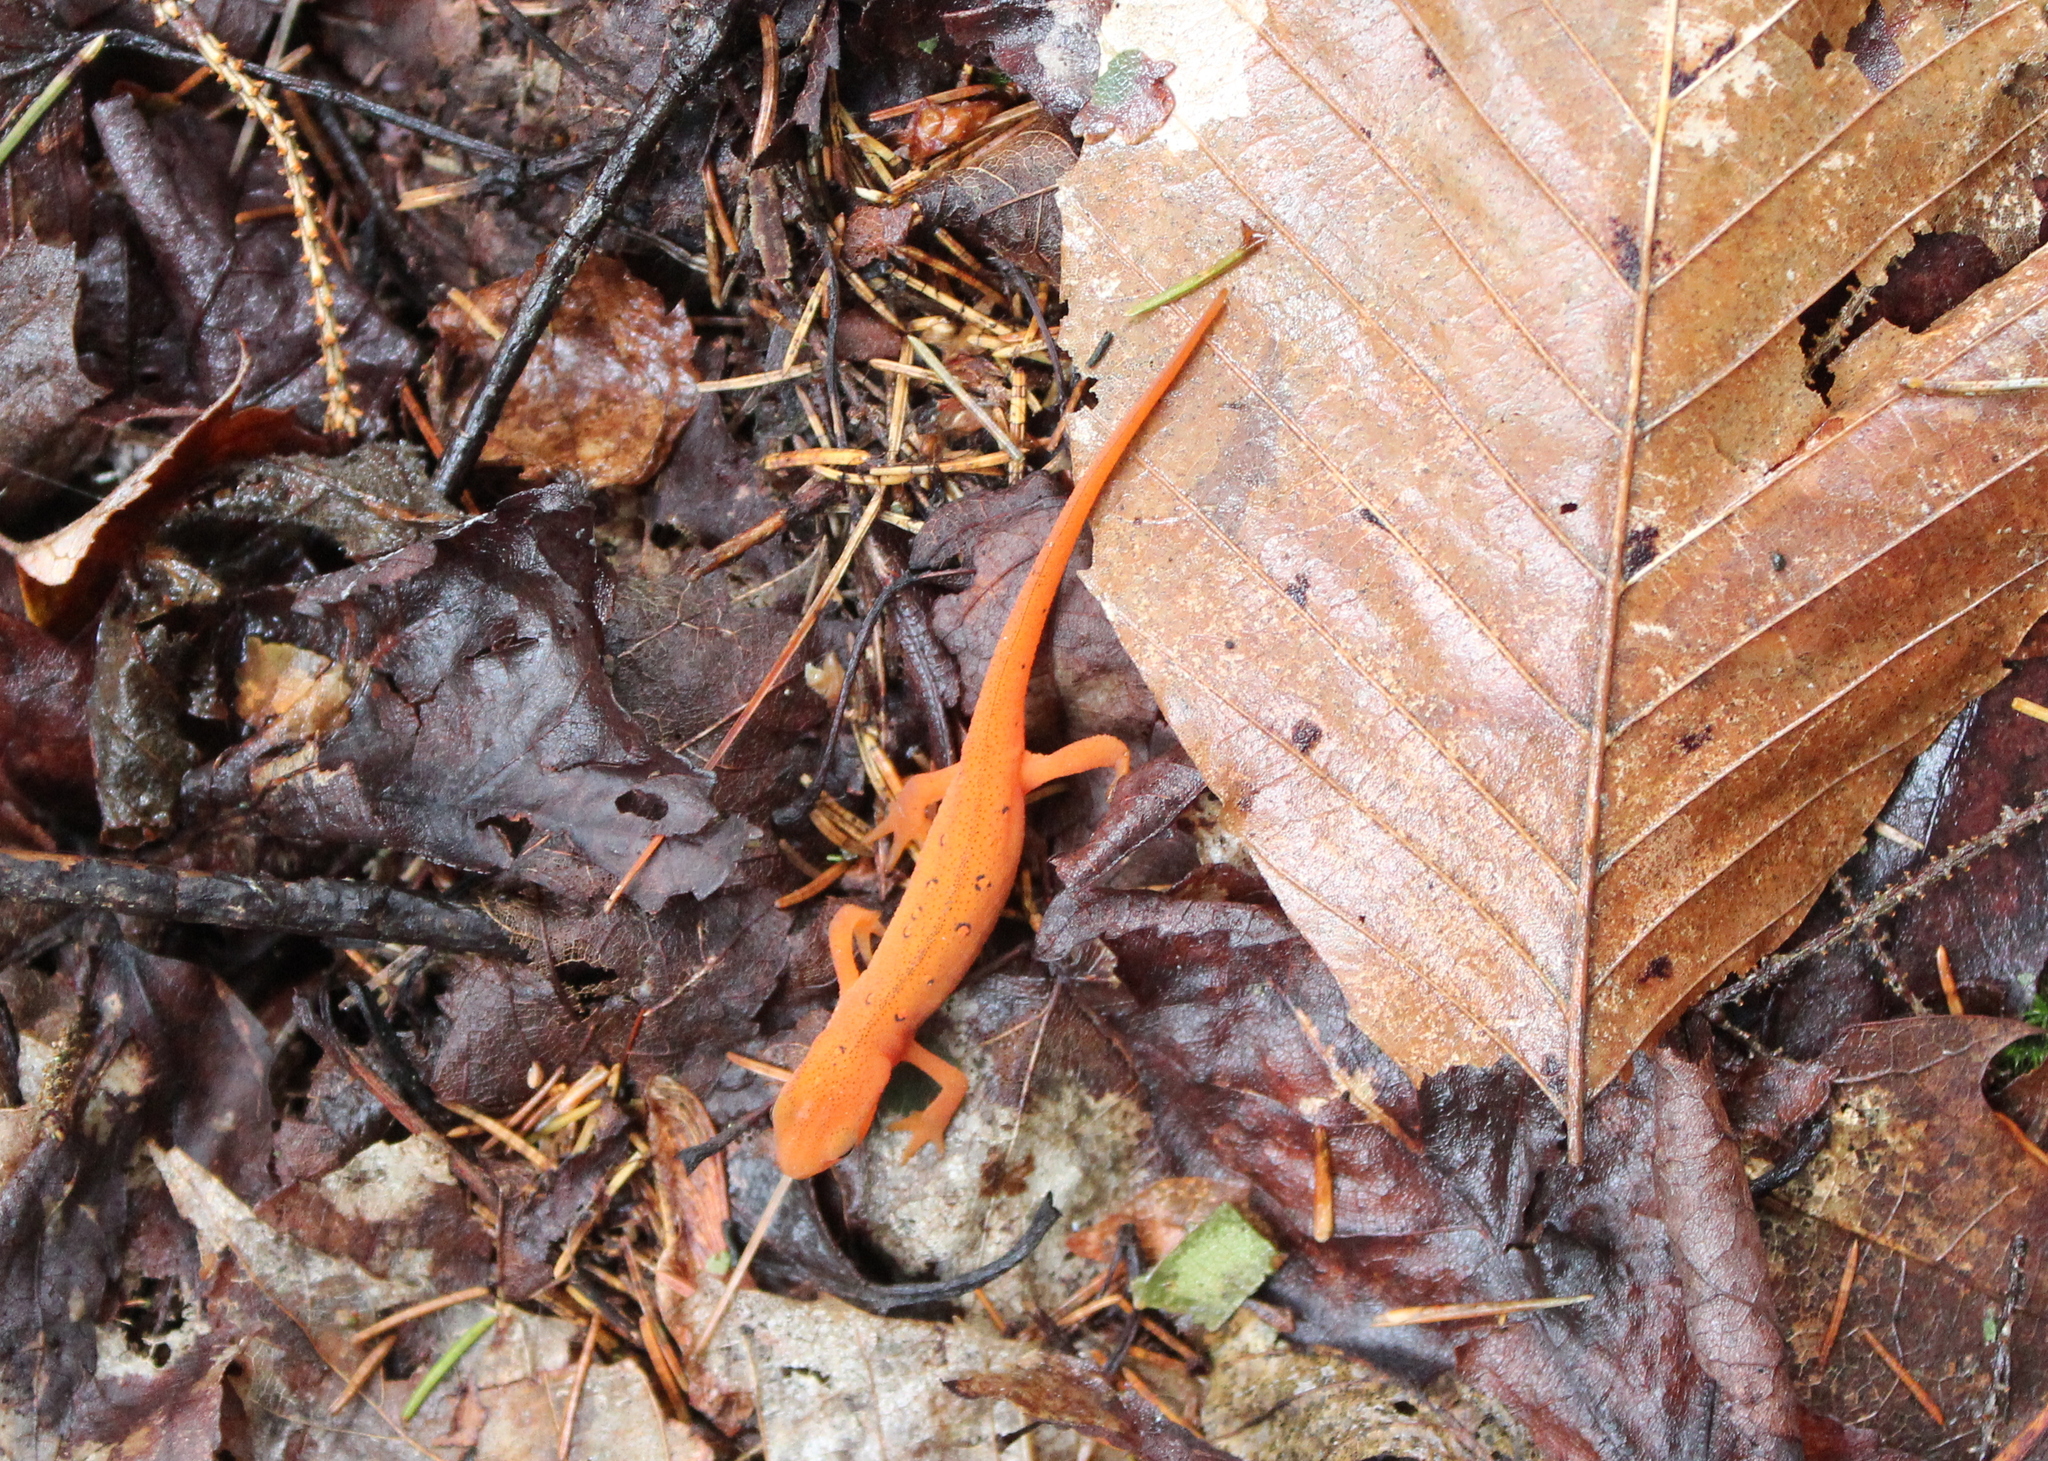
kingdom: Animalia
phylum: Chordata
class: Amphibia
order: Caudata
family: Salamandridae
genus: Notophthalmus
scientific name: Notophthalmus viridescens
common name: Eastern newt
